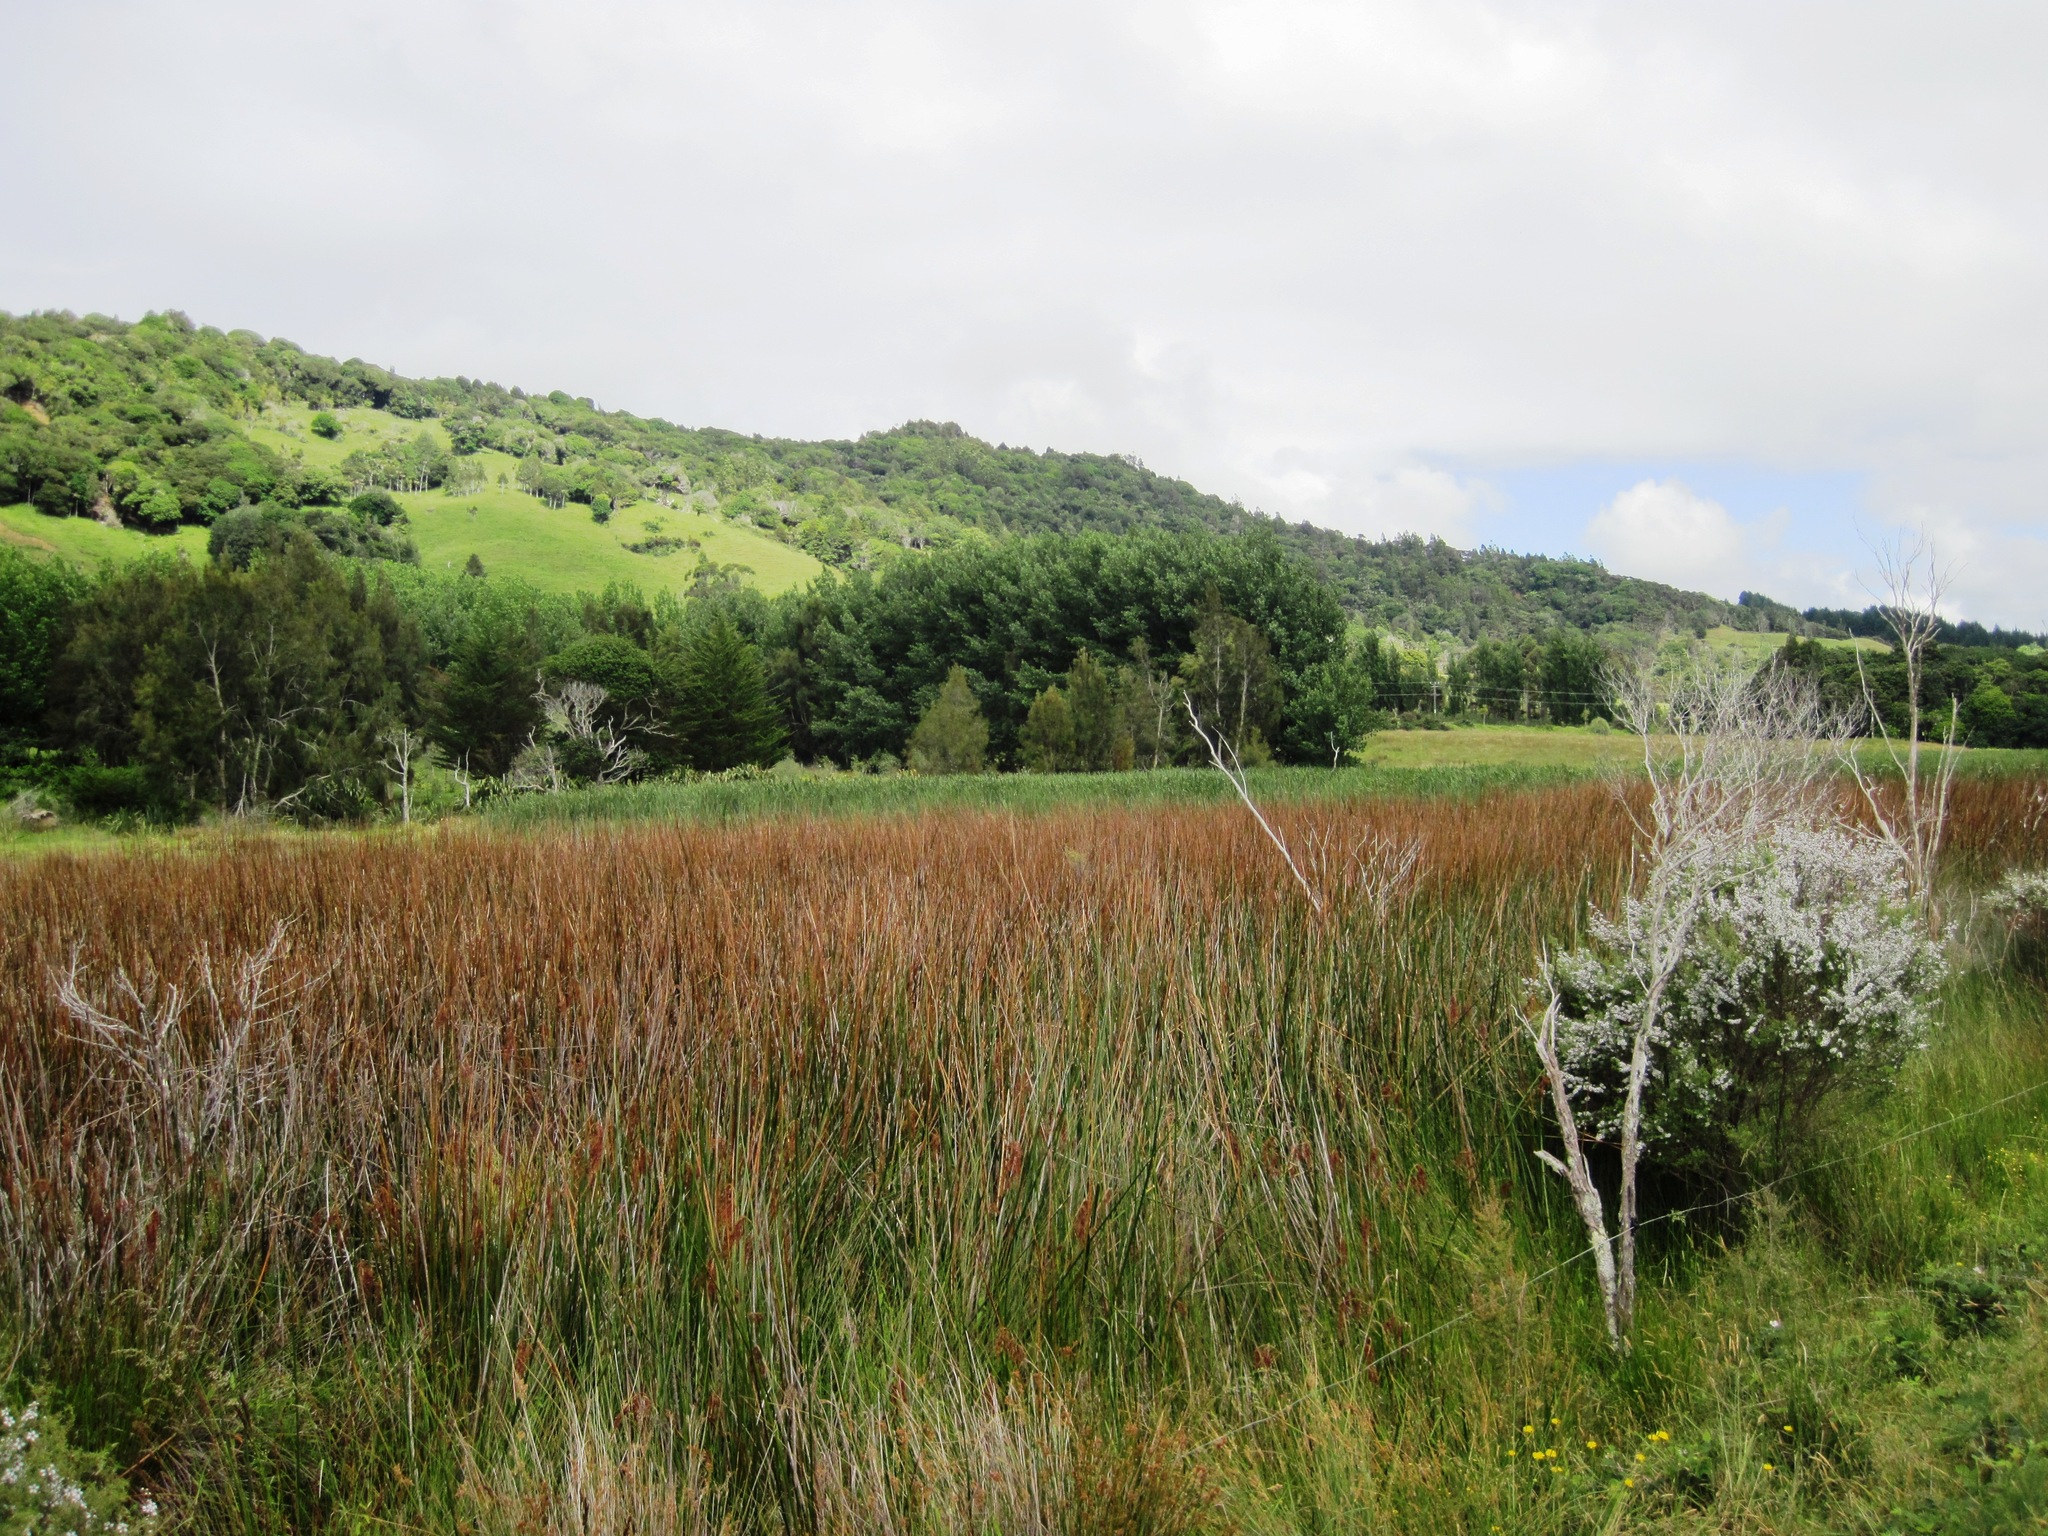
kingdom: Plantae
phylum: Tracheophyta
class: Liliopsida
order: Poales
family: Cyperaceae
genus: Machaerina
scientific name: Machaerina articulata
